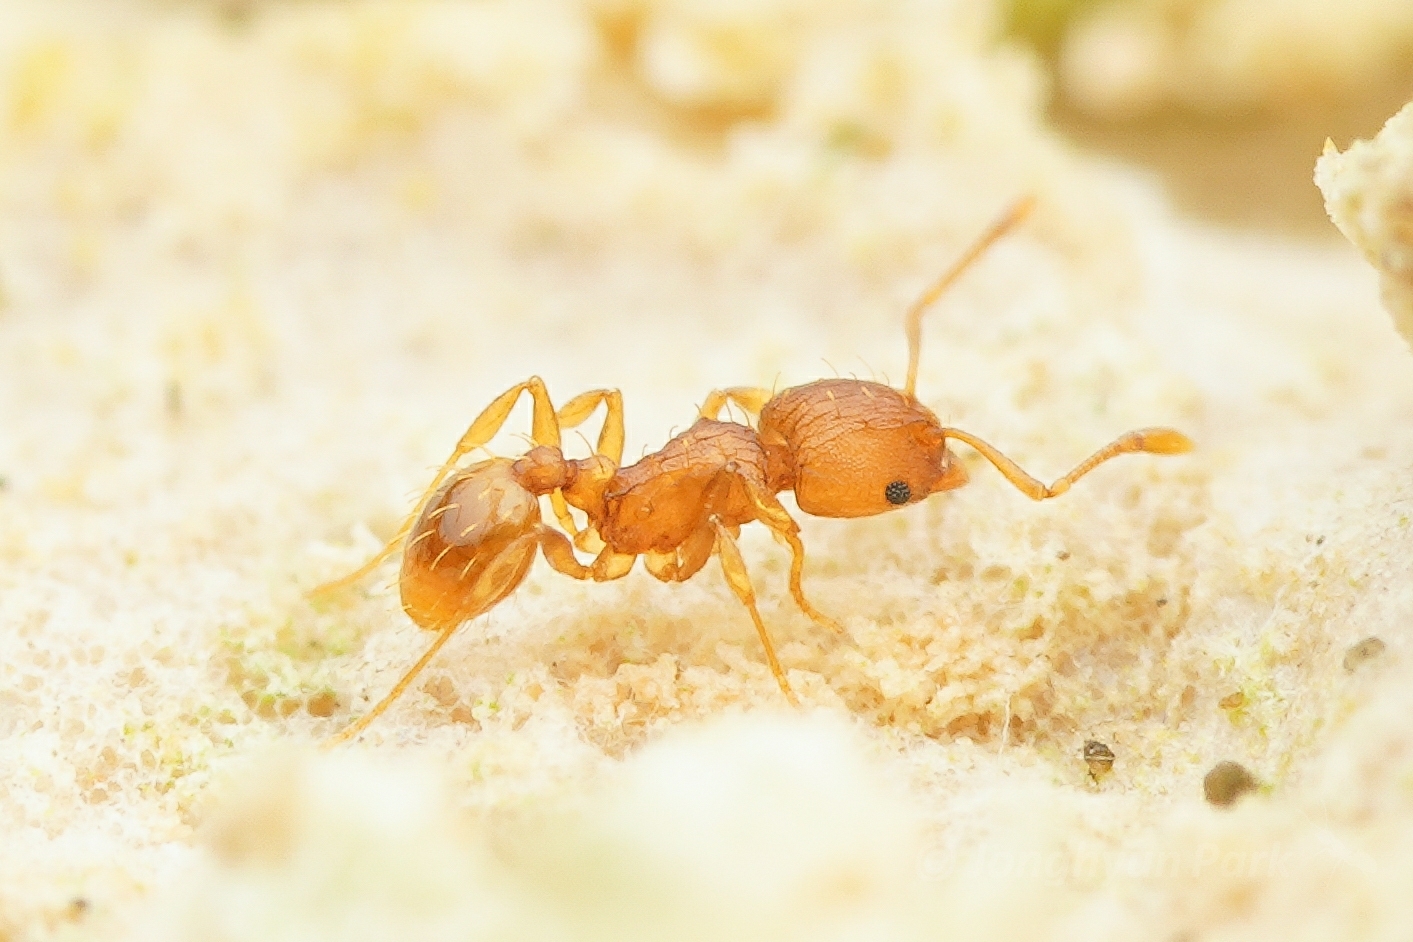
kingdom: Animalia
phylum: Arthropoda
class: Insecta
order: Hymenoptera
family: Formicidae
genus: Wasmannia
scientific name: Wasmannia rochai
